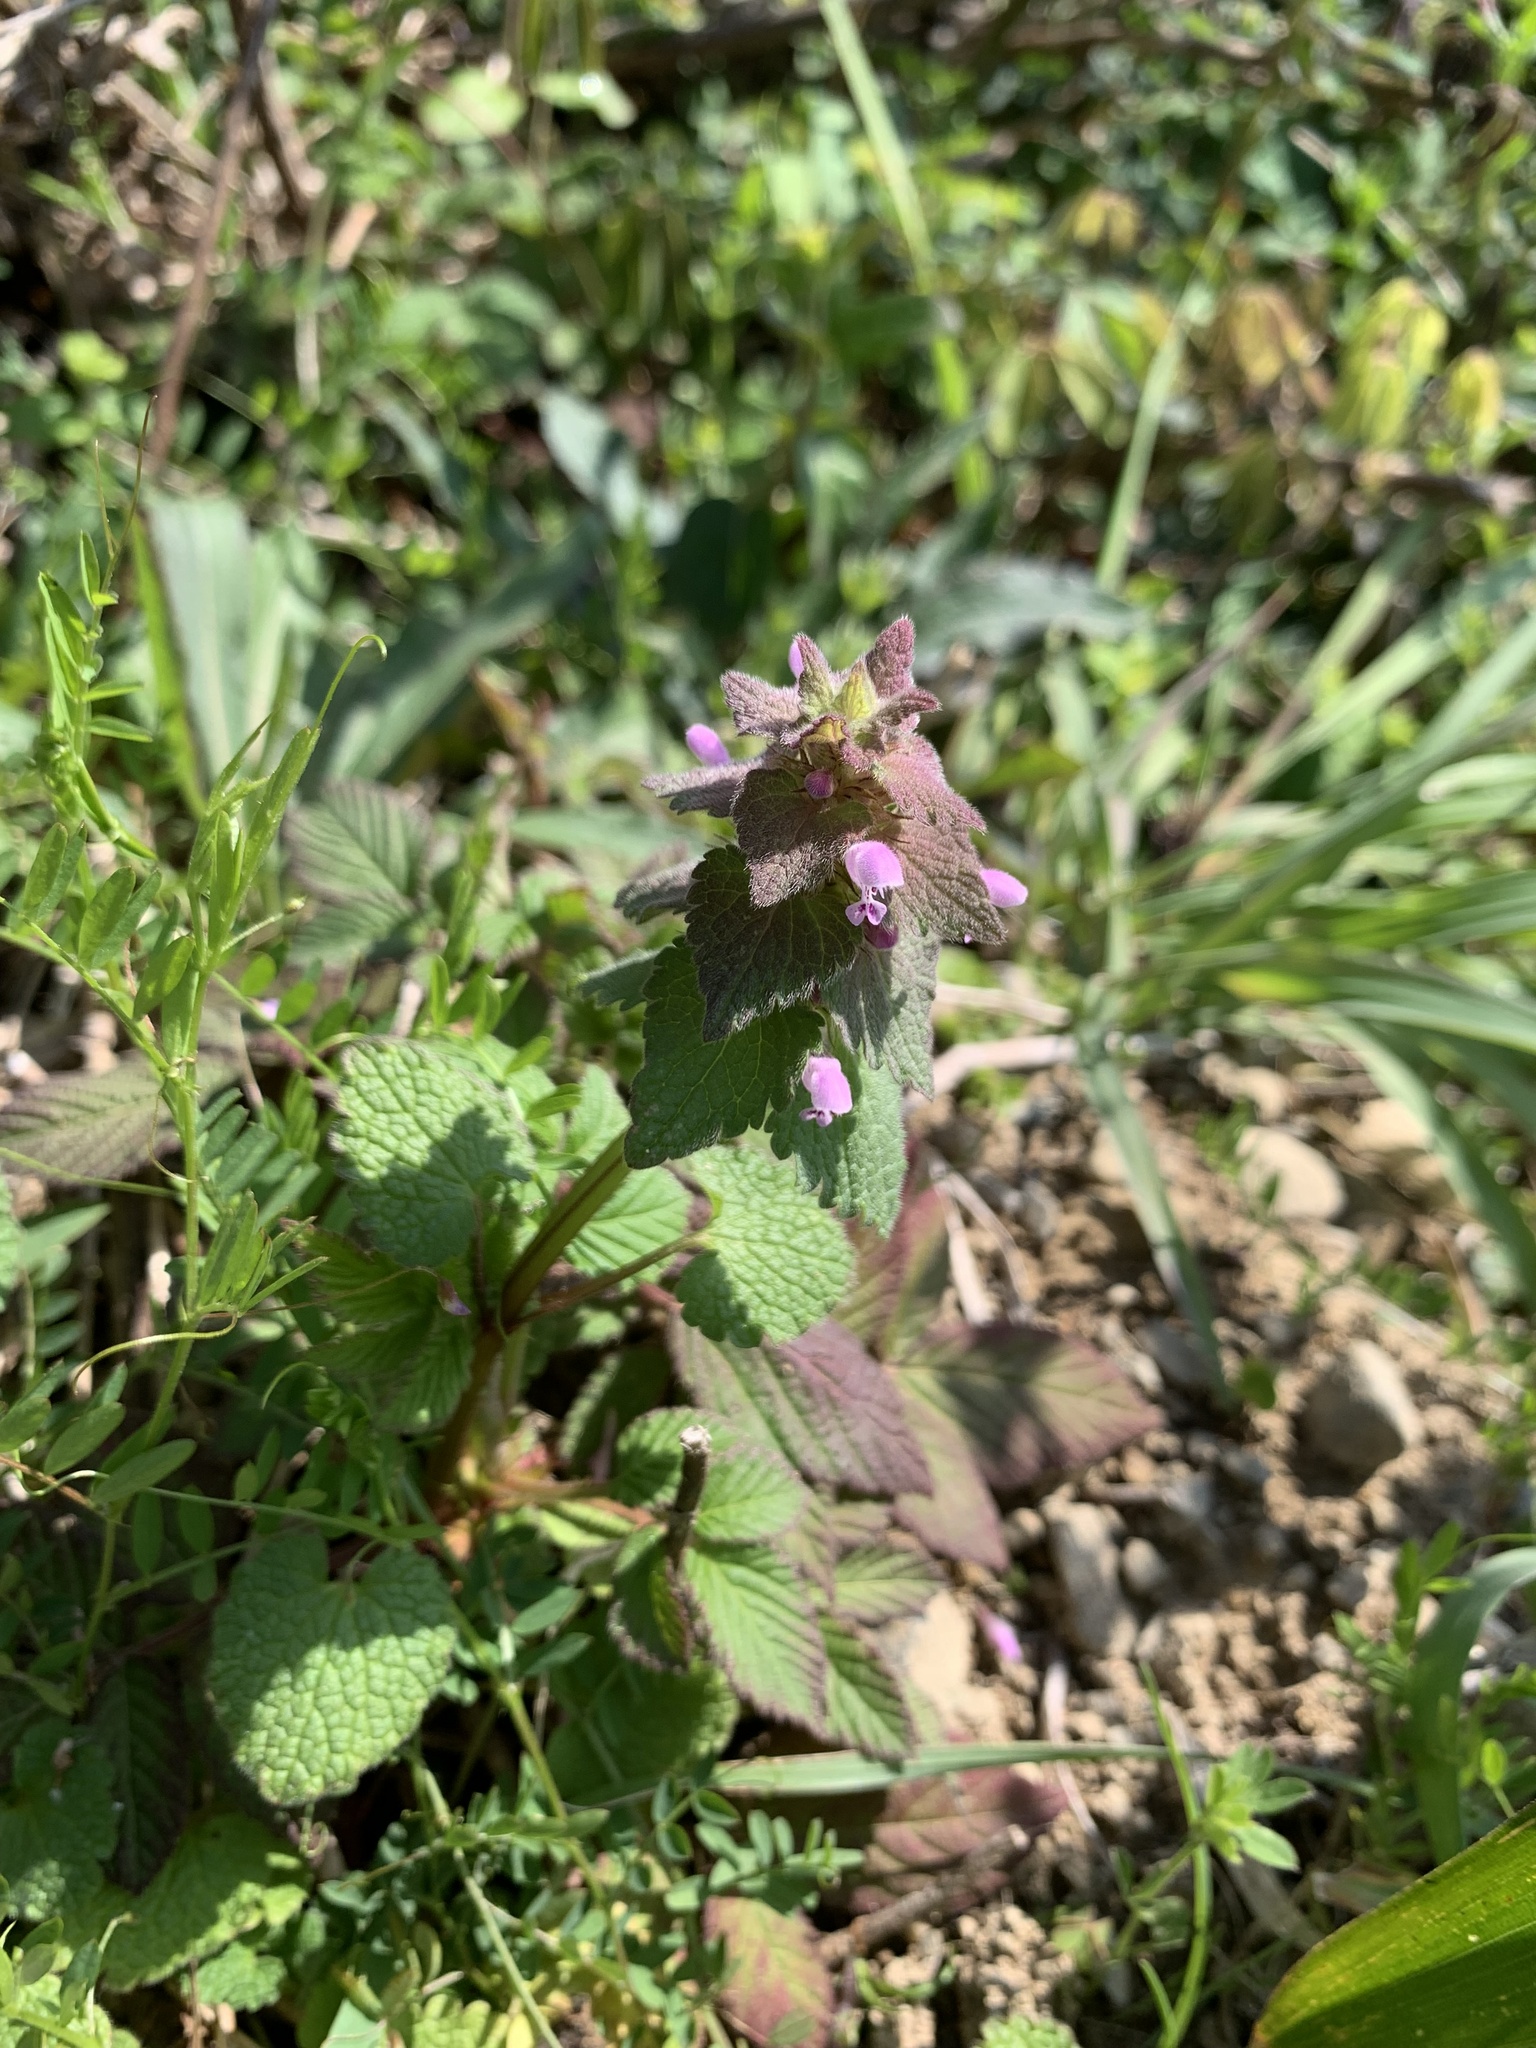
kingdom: Plantae
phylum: Tracheophyta
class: Magnoliopsida
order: Lamiales
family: Lamiaceae
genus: Lamium
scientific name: Lamium purpureum
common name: Red dead-nettle
